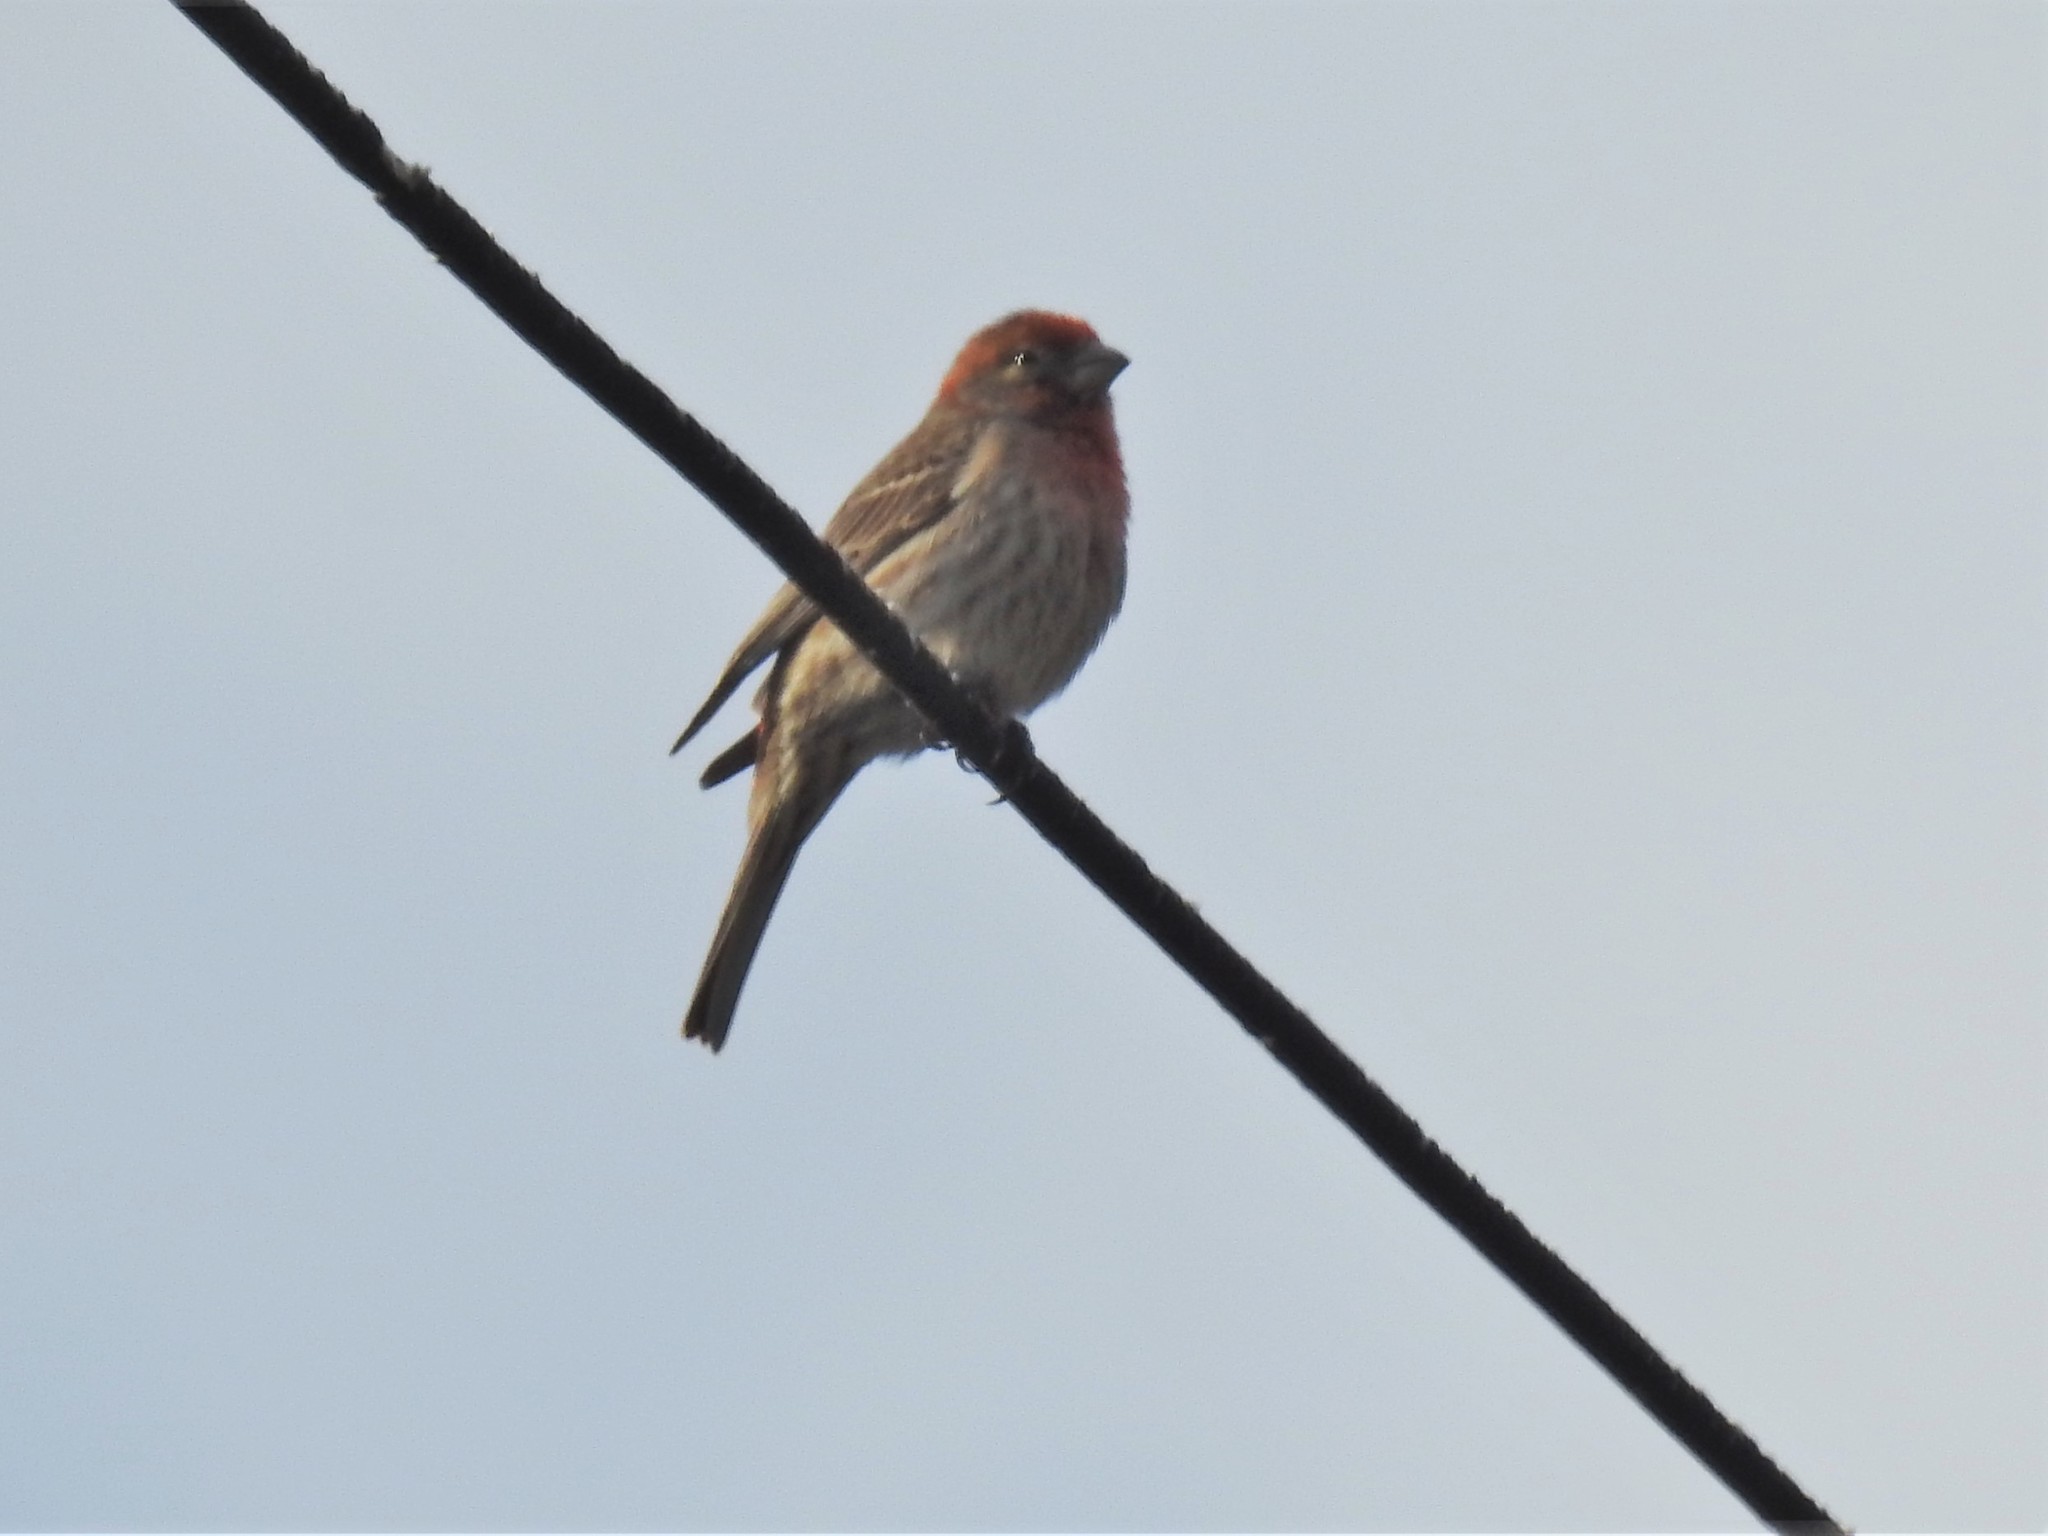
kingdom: Animalia
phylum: Chordata
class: Aves
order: Passeriformes
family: Fringillidae
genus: Haemorhous
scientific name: Haemorhous mexicanus
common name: House finch
